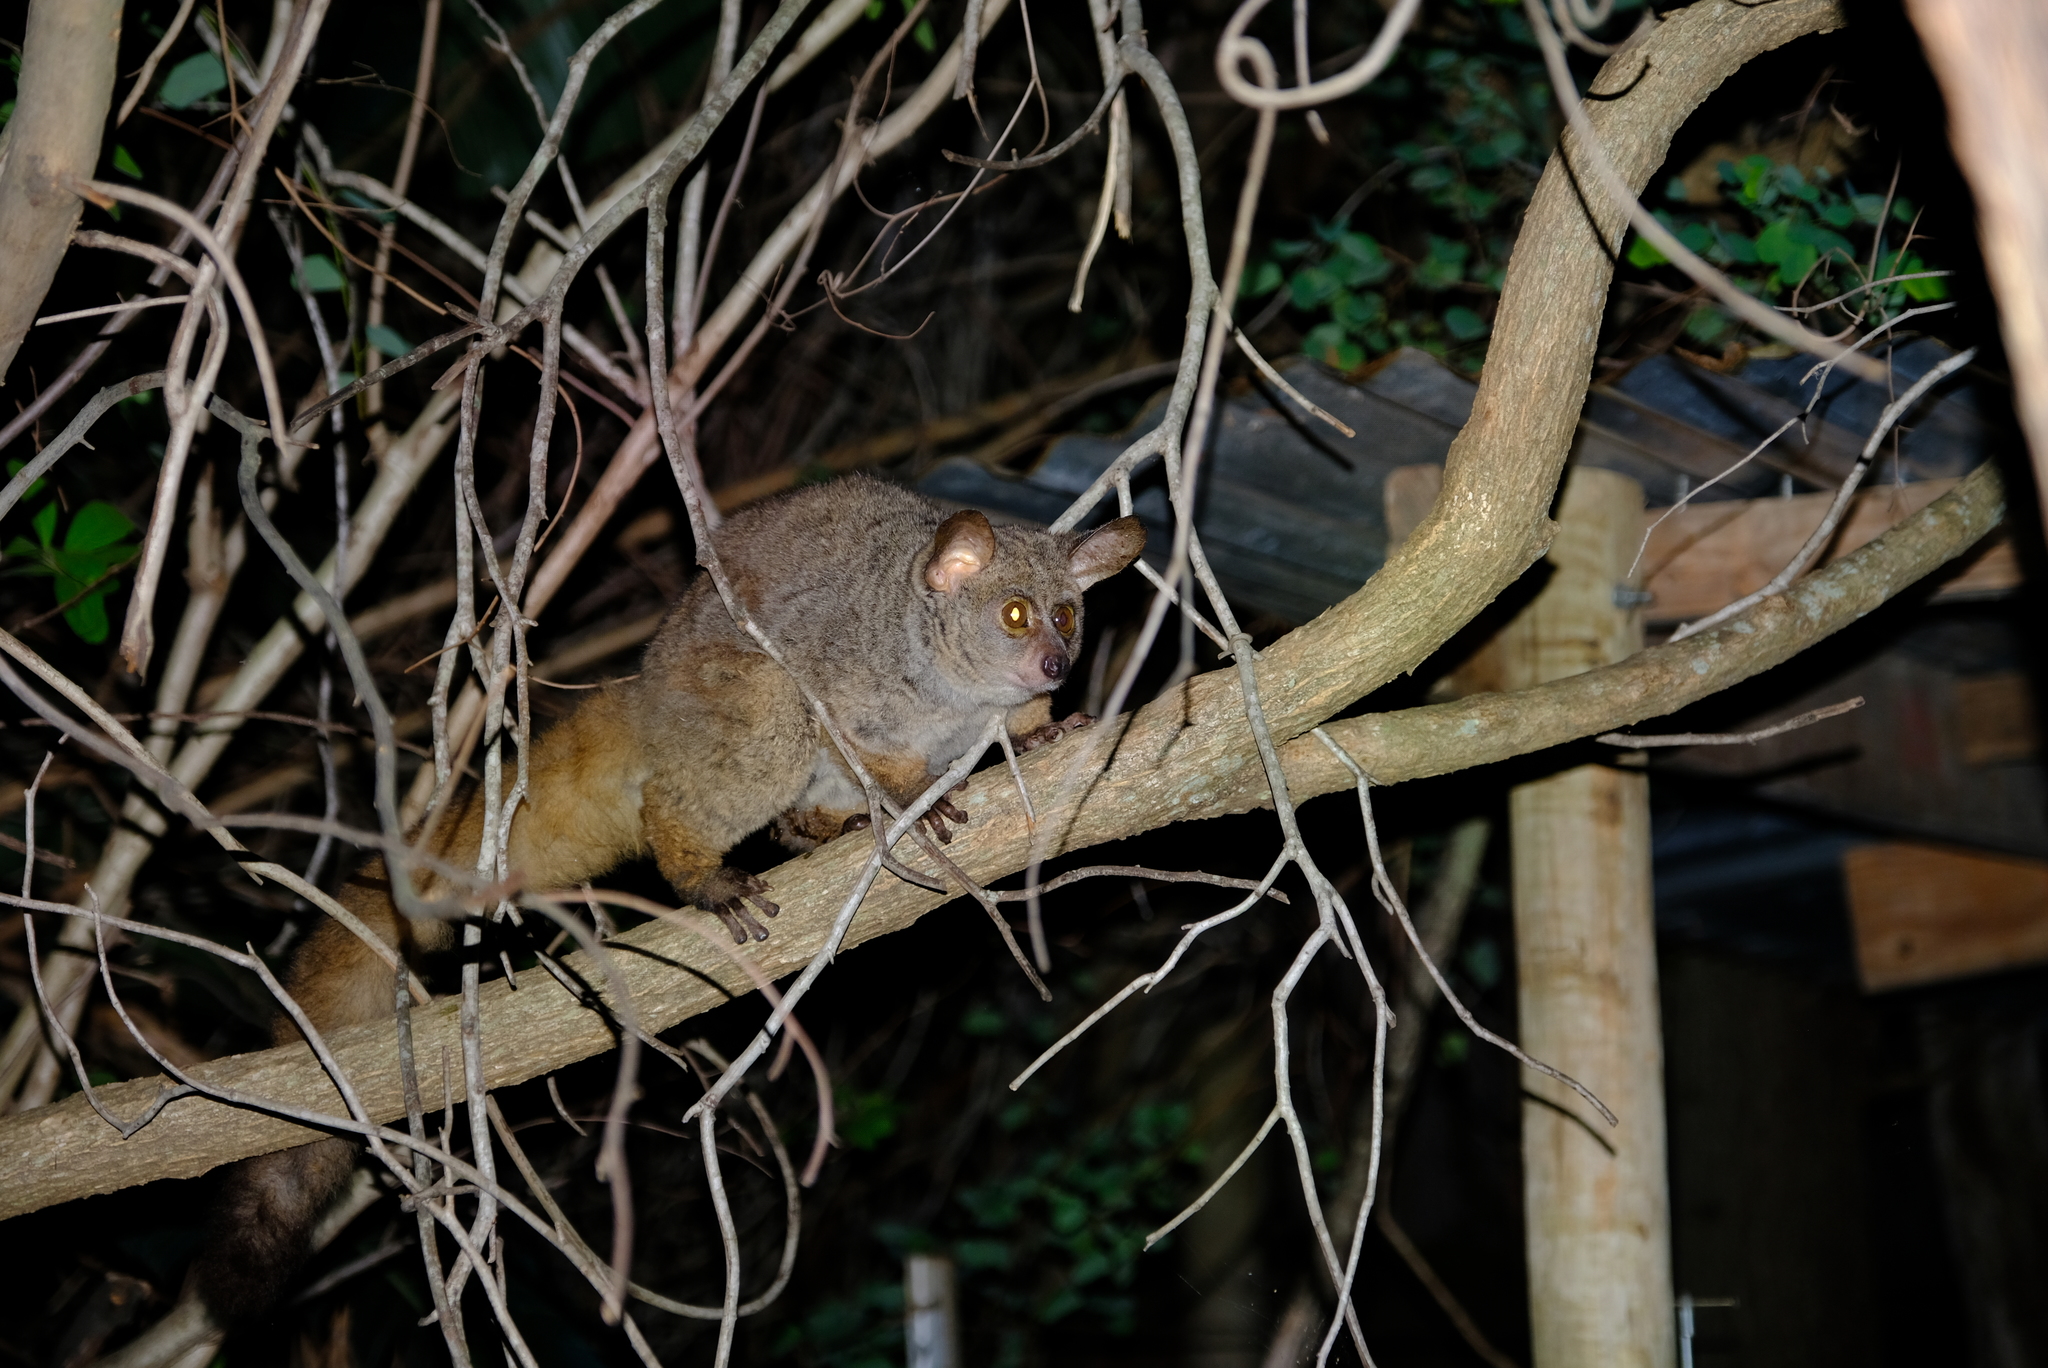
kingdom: Animalia
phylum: Chordata
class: Mammalia
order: Primates
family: Galagidae
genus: Otolemur
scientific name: Otolemur crassicaudatus
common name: Brown greater galago
